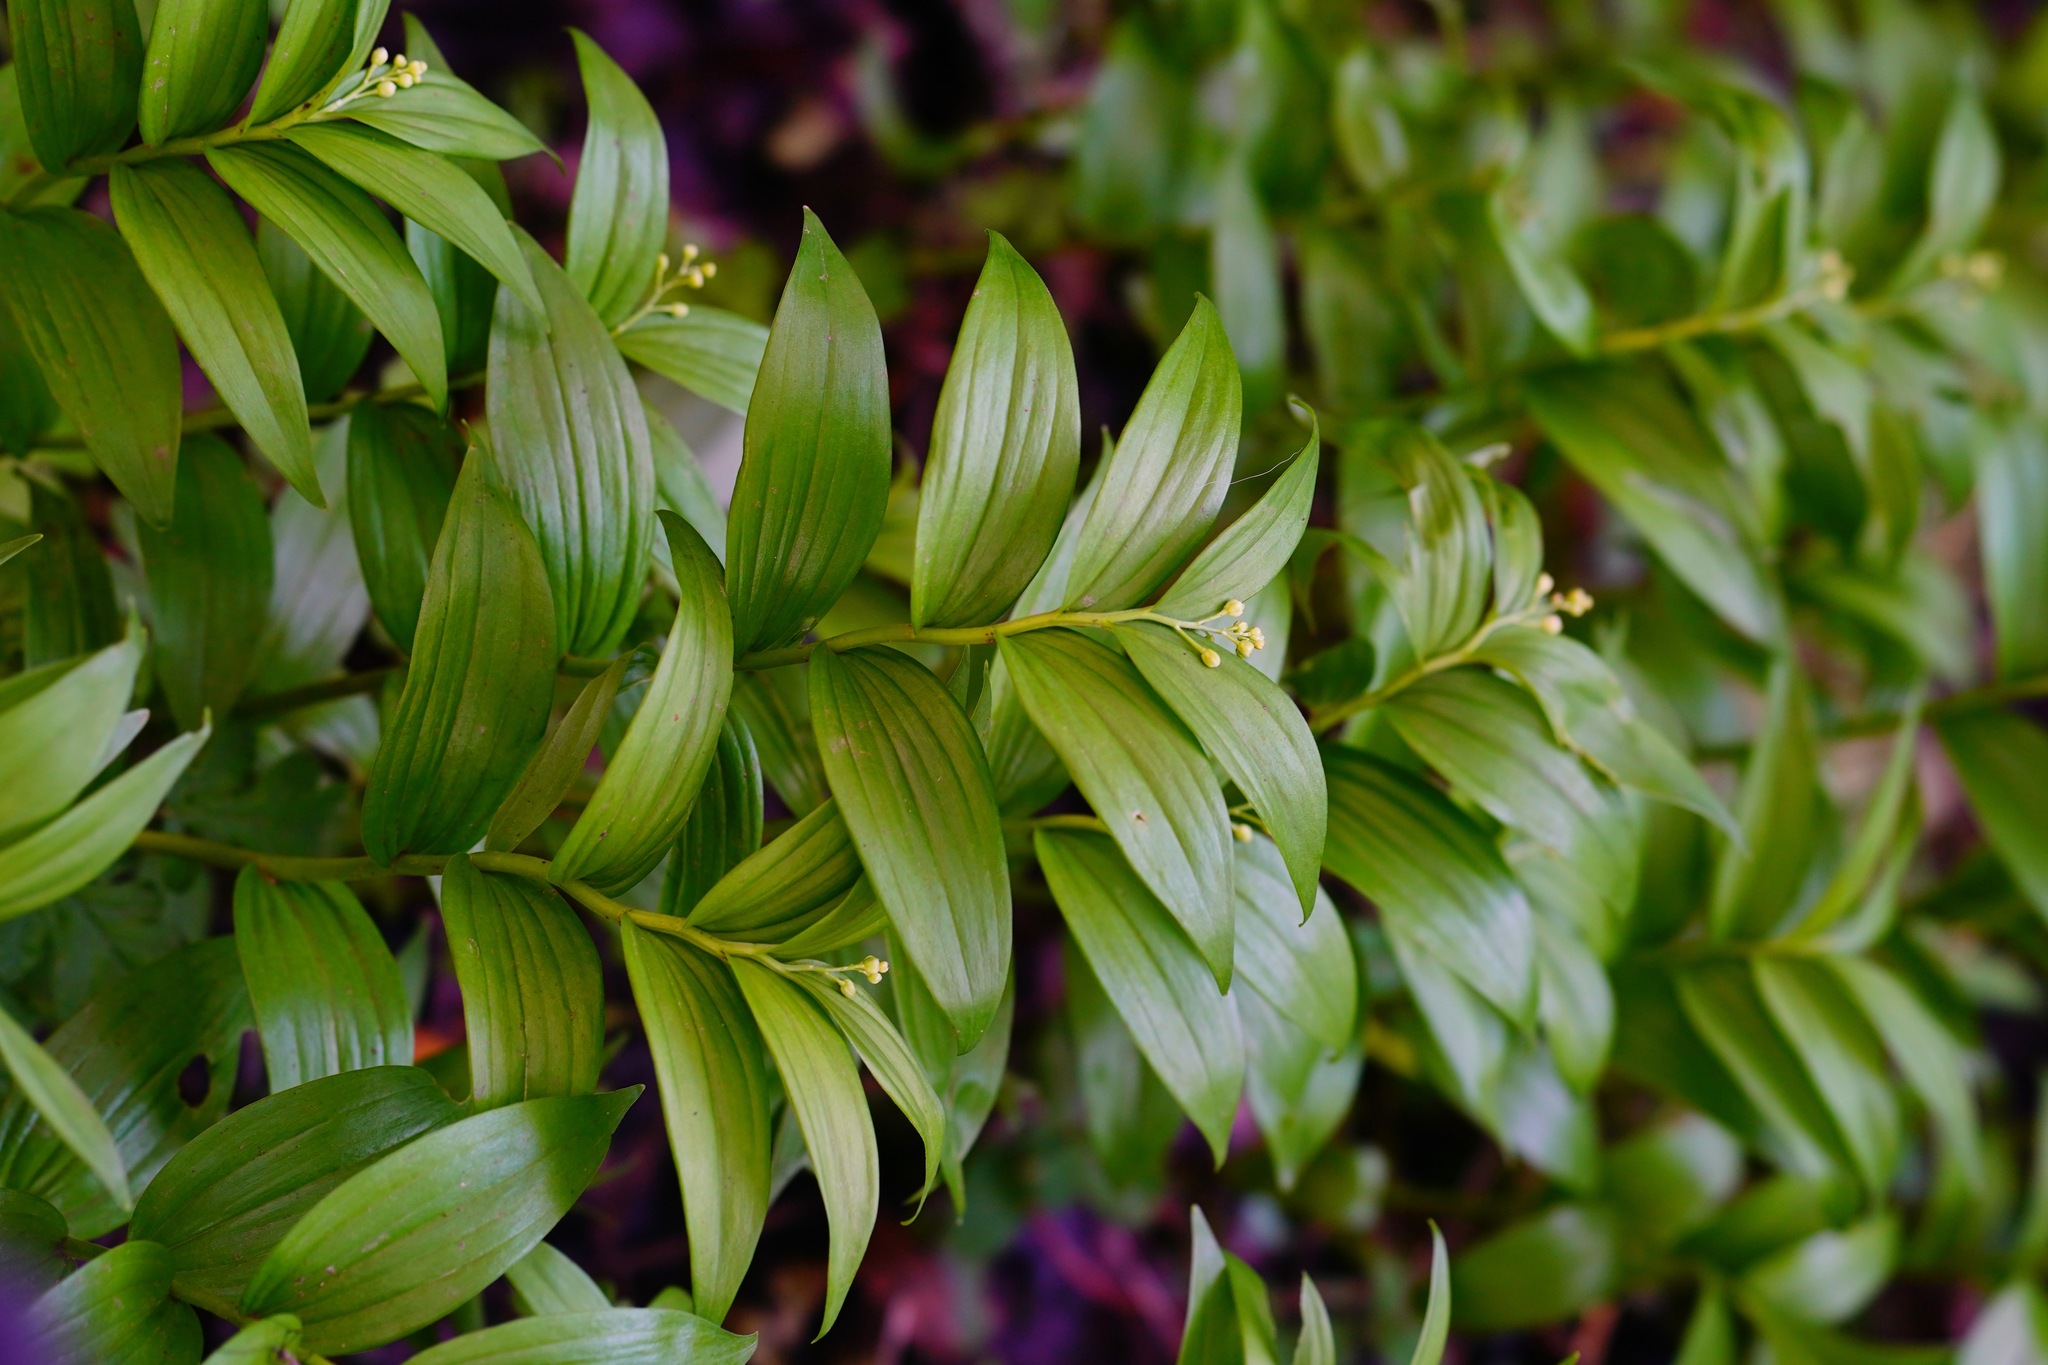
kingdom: Plantae
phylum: Tracheophyta
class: Liliopsida
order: Asparagales
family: Asparagaceae
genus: Maianthemum
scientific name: Maianthemum stellatum
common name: Little false solomon's seal
